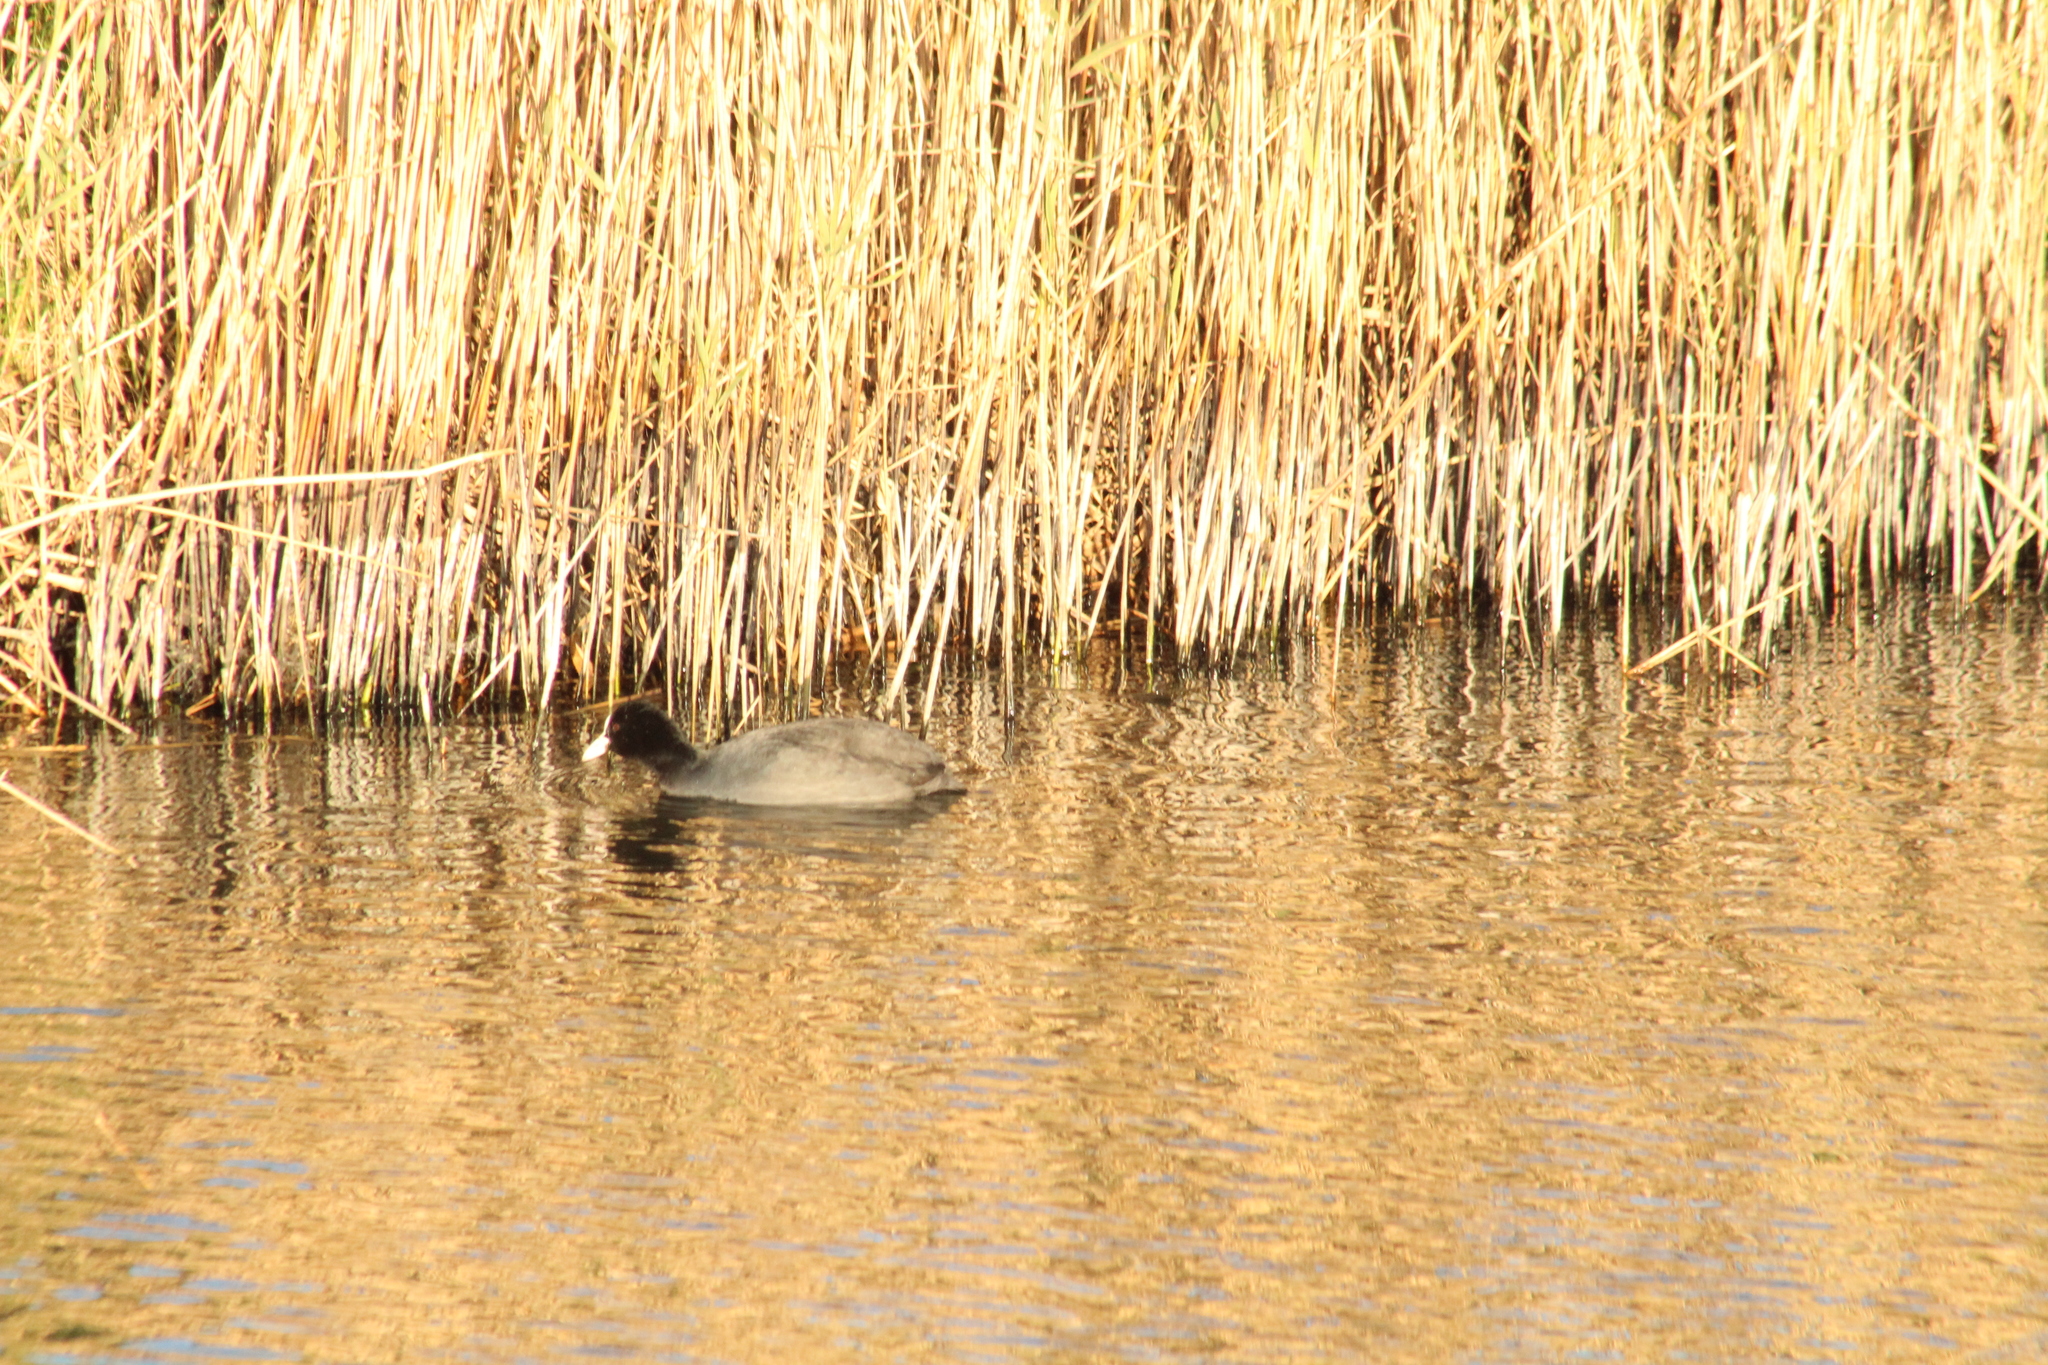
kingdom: Animalia
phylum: Chordata
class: Aves
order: Gruiformes
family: Rallidae
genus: Fulica
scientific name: Fulica atra
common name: Eurasian coot
